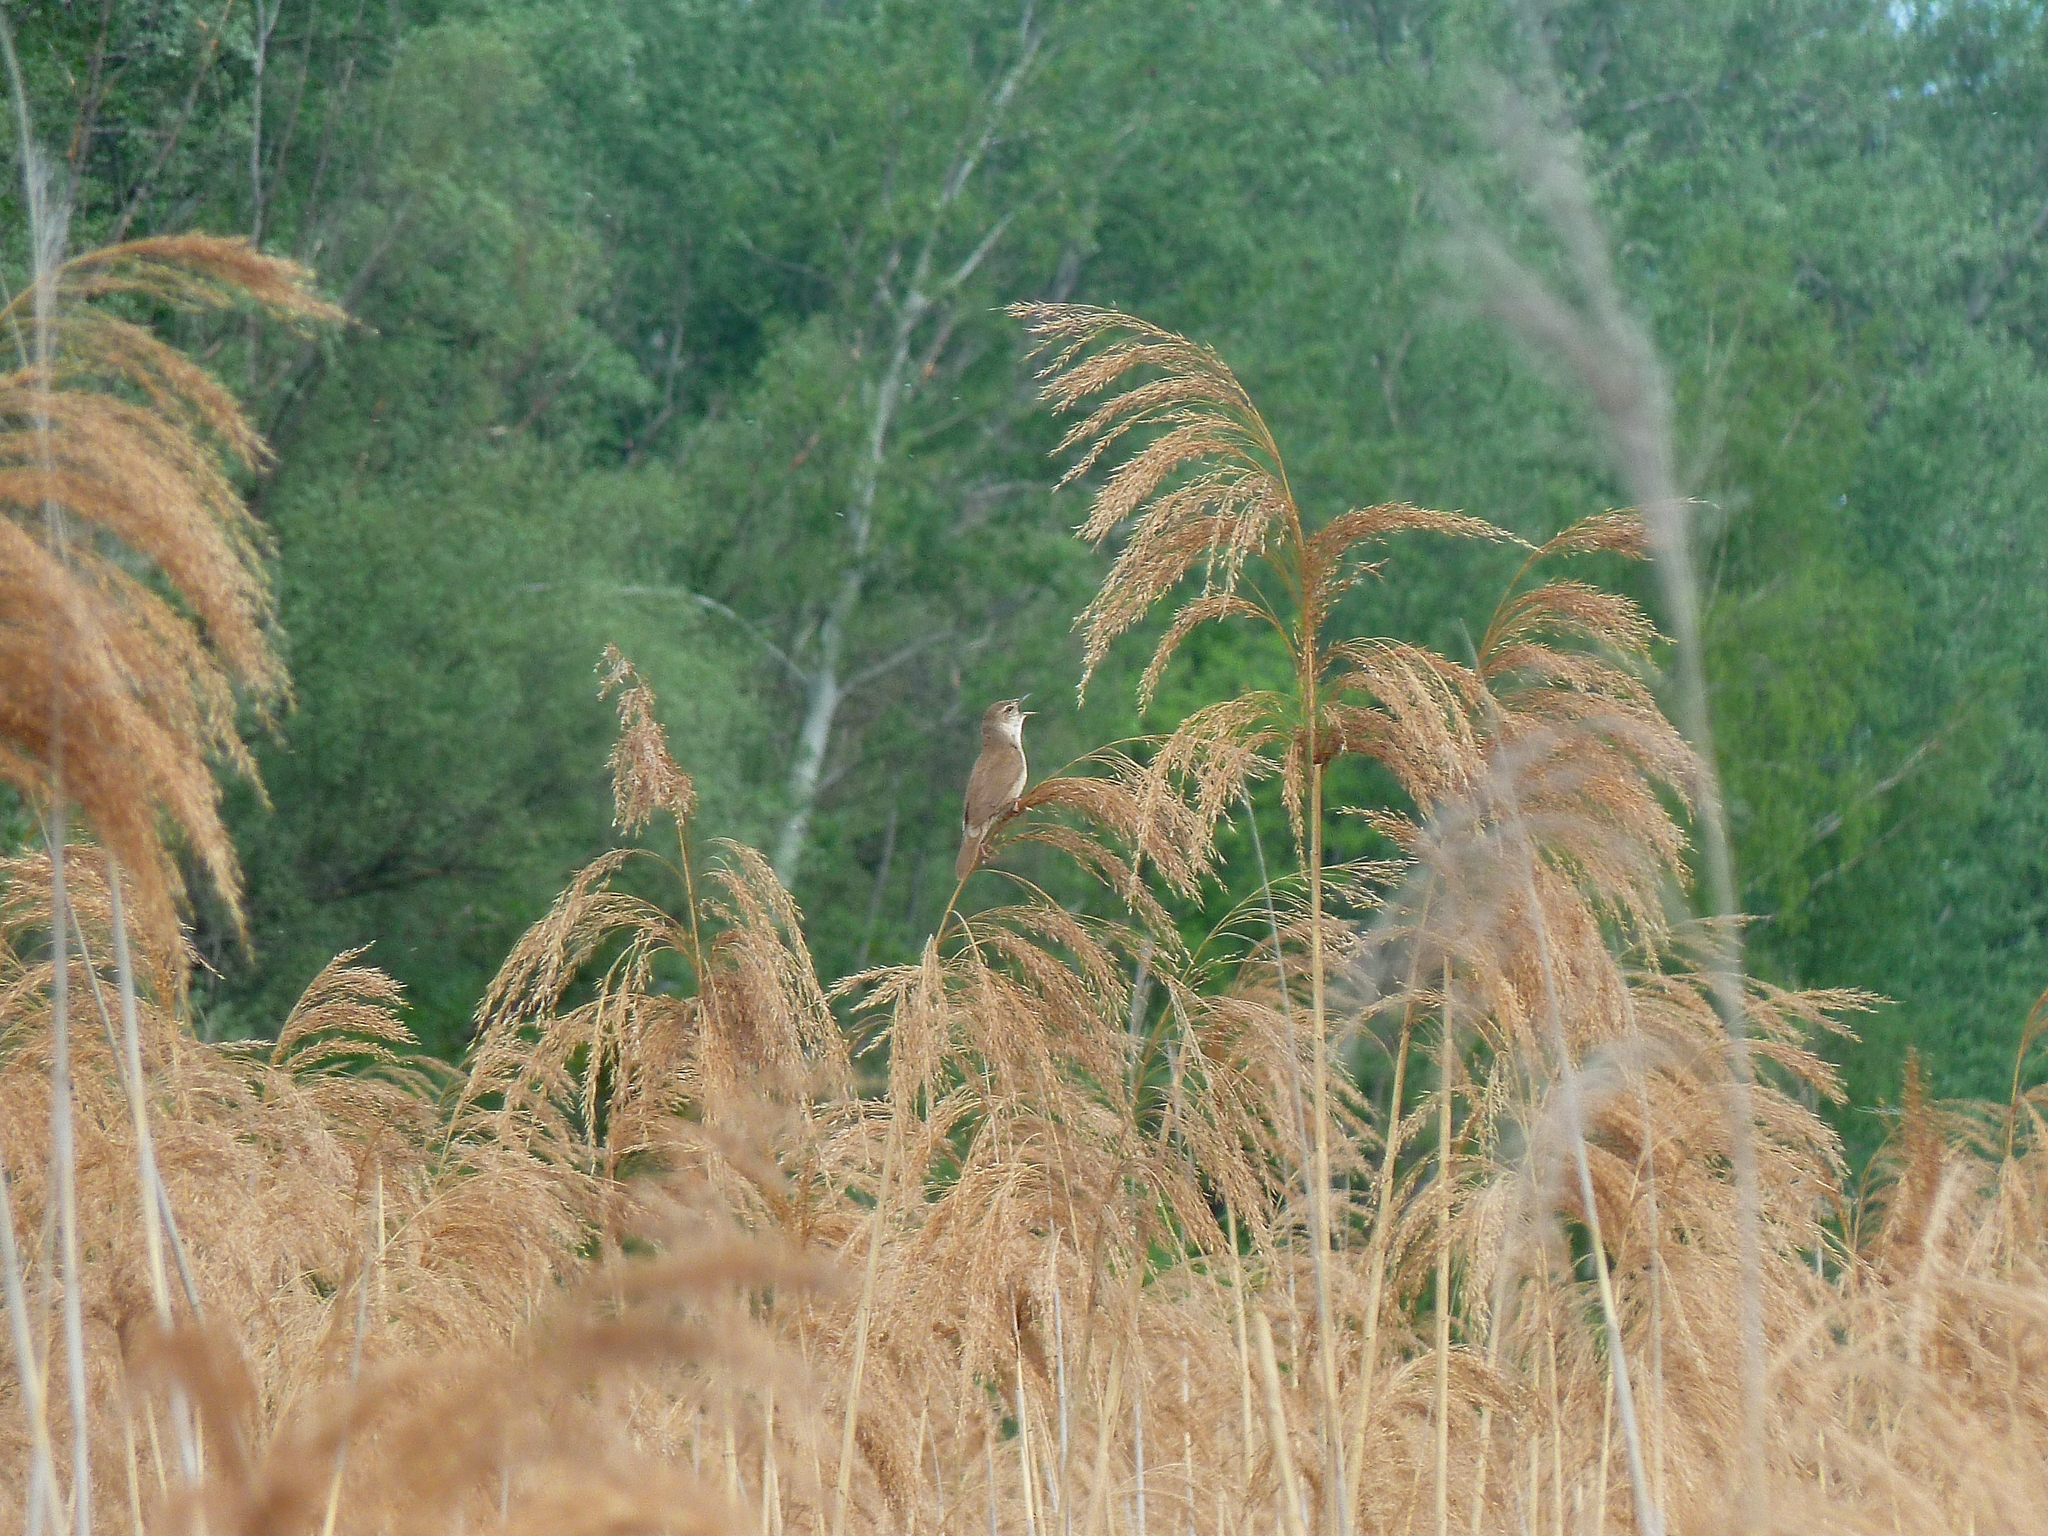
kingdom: Animalia
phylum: Chordata
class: Aves
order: Passeriformes
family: Locustellidae
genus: Locustella
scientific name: Locustella luscinioides
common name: Savi's warbler
